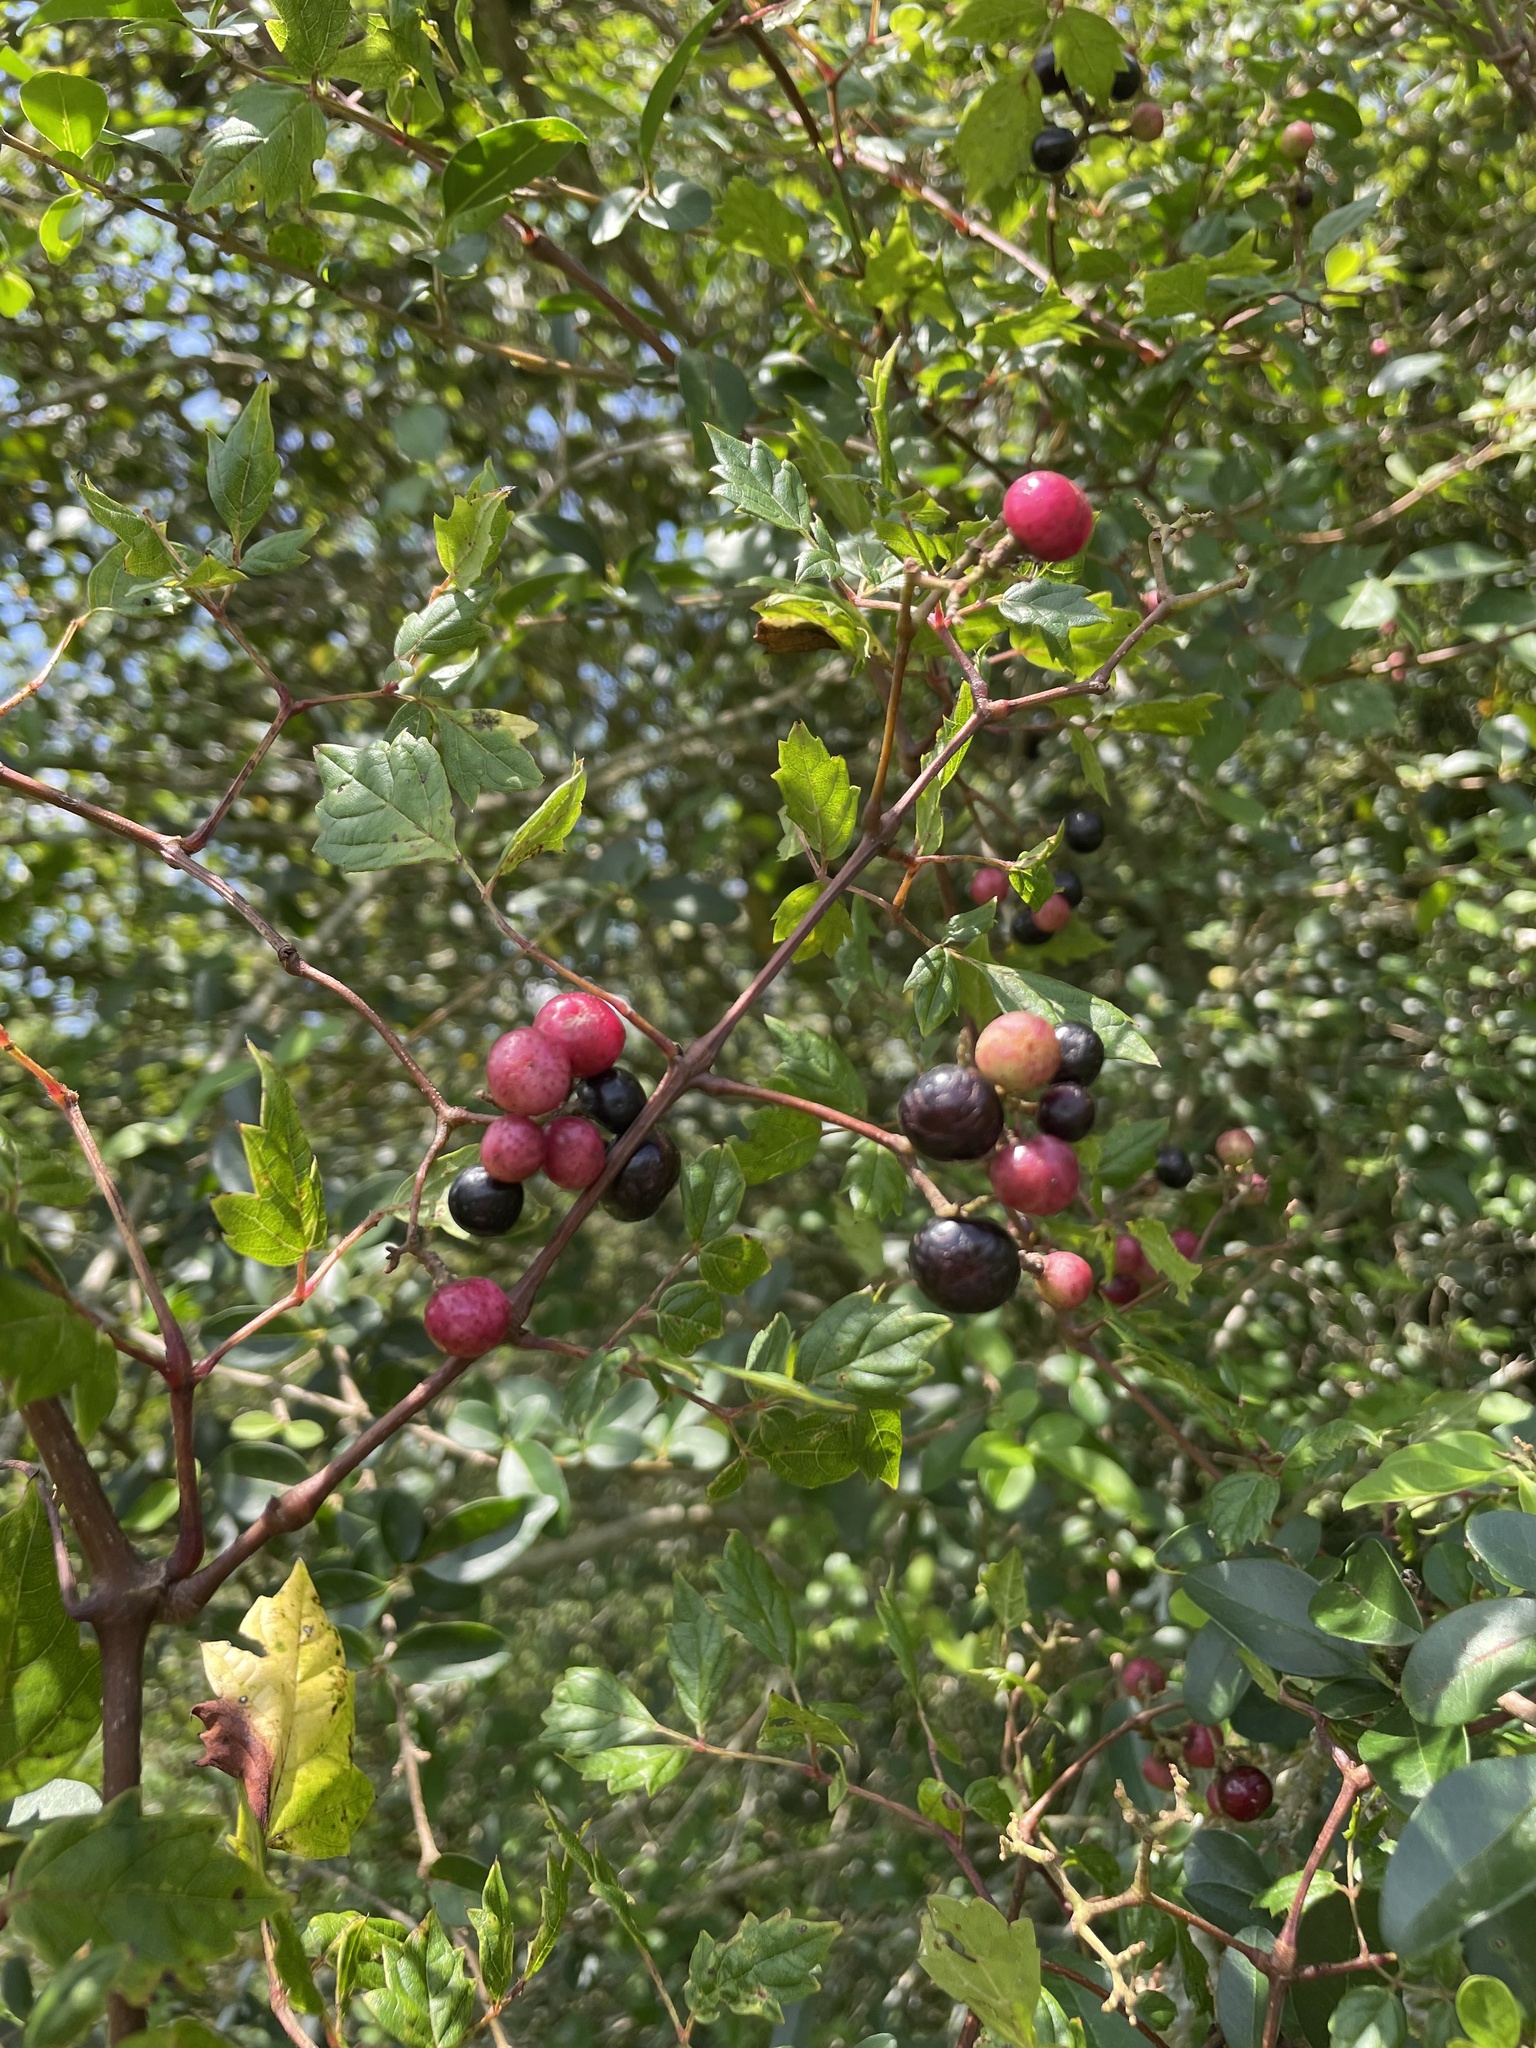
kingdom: Plantae
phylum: Tracheophyta
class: Magnoliopsida
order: Vitales
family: Vitaceae
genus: Nekemias
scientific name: Nekemias arborea
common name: Peppervine
